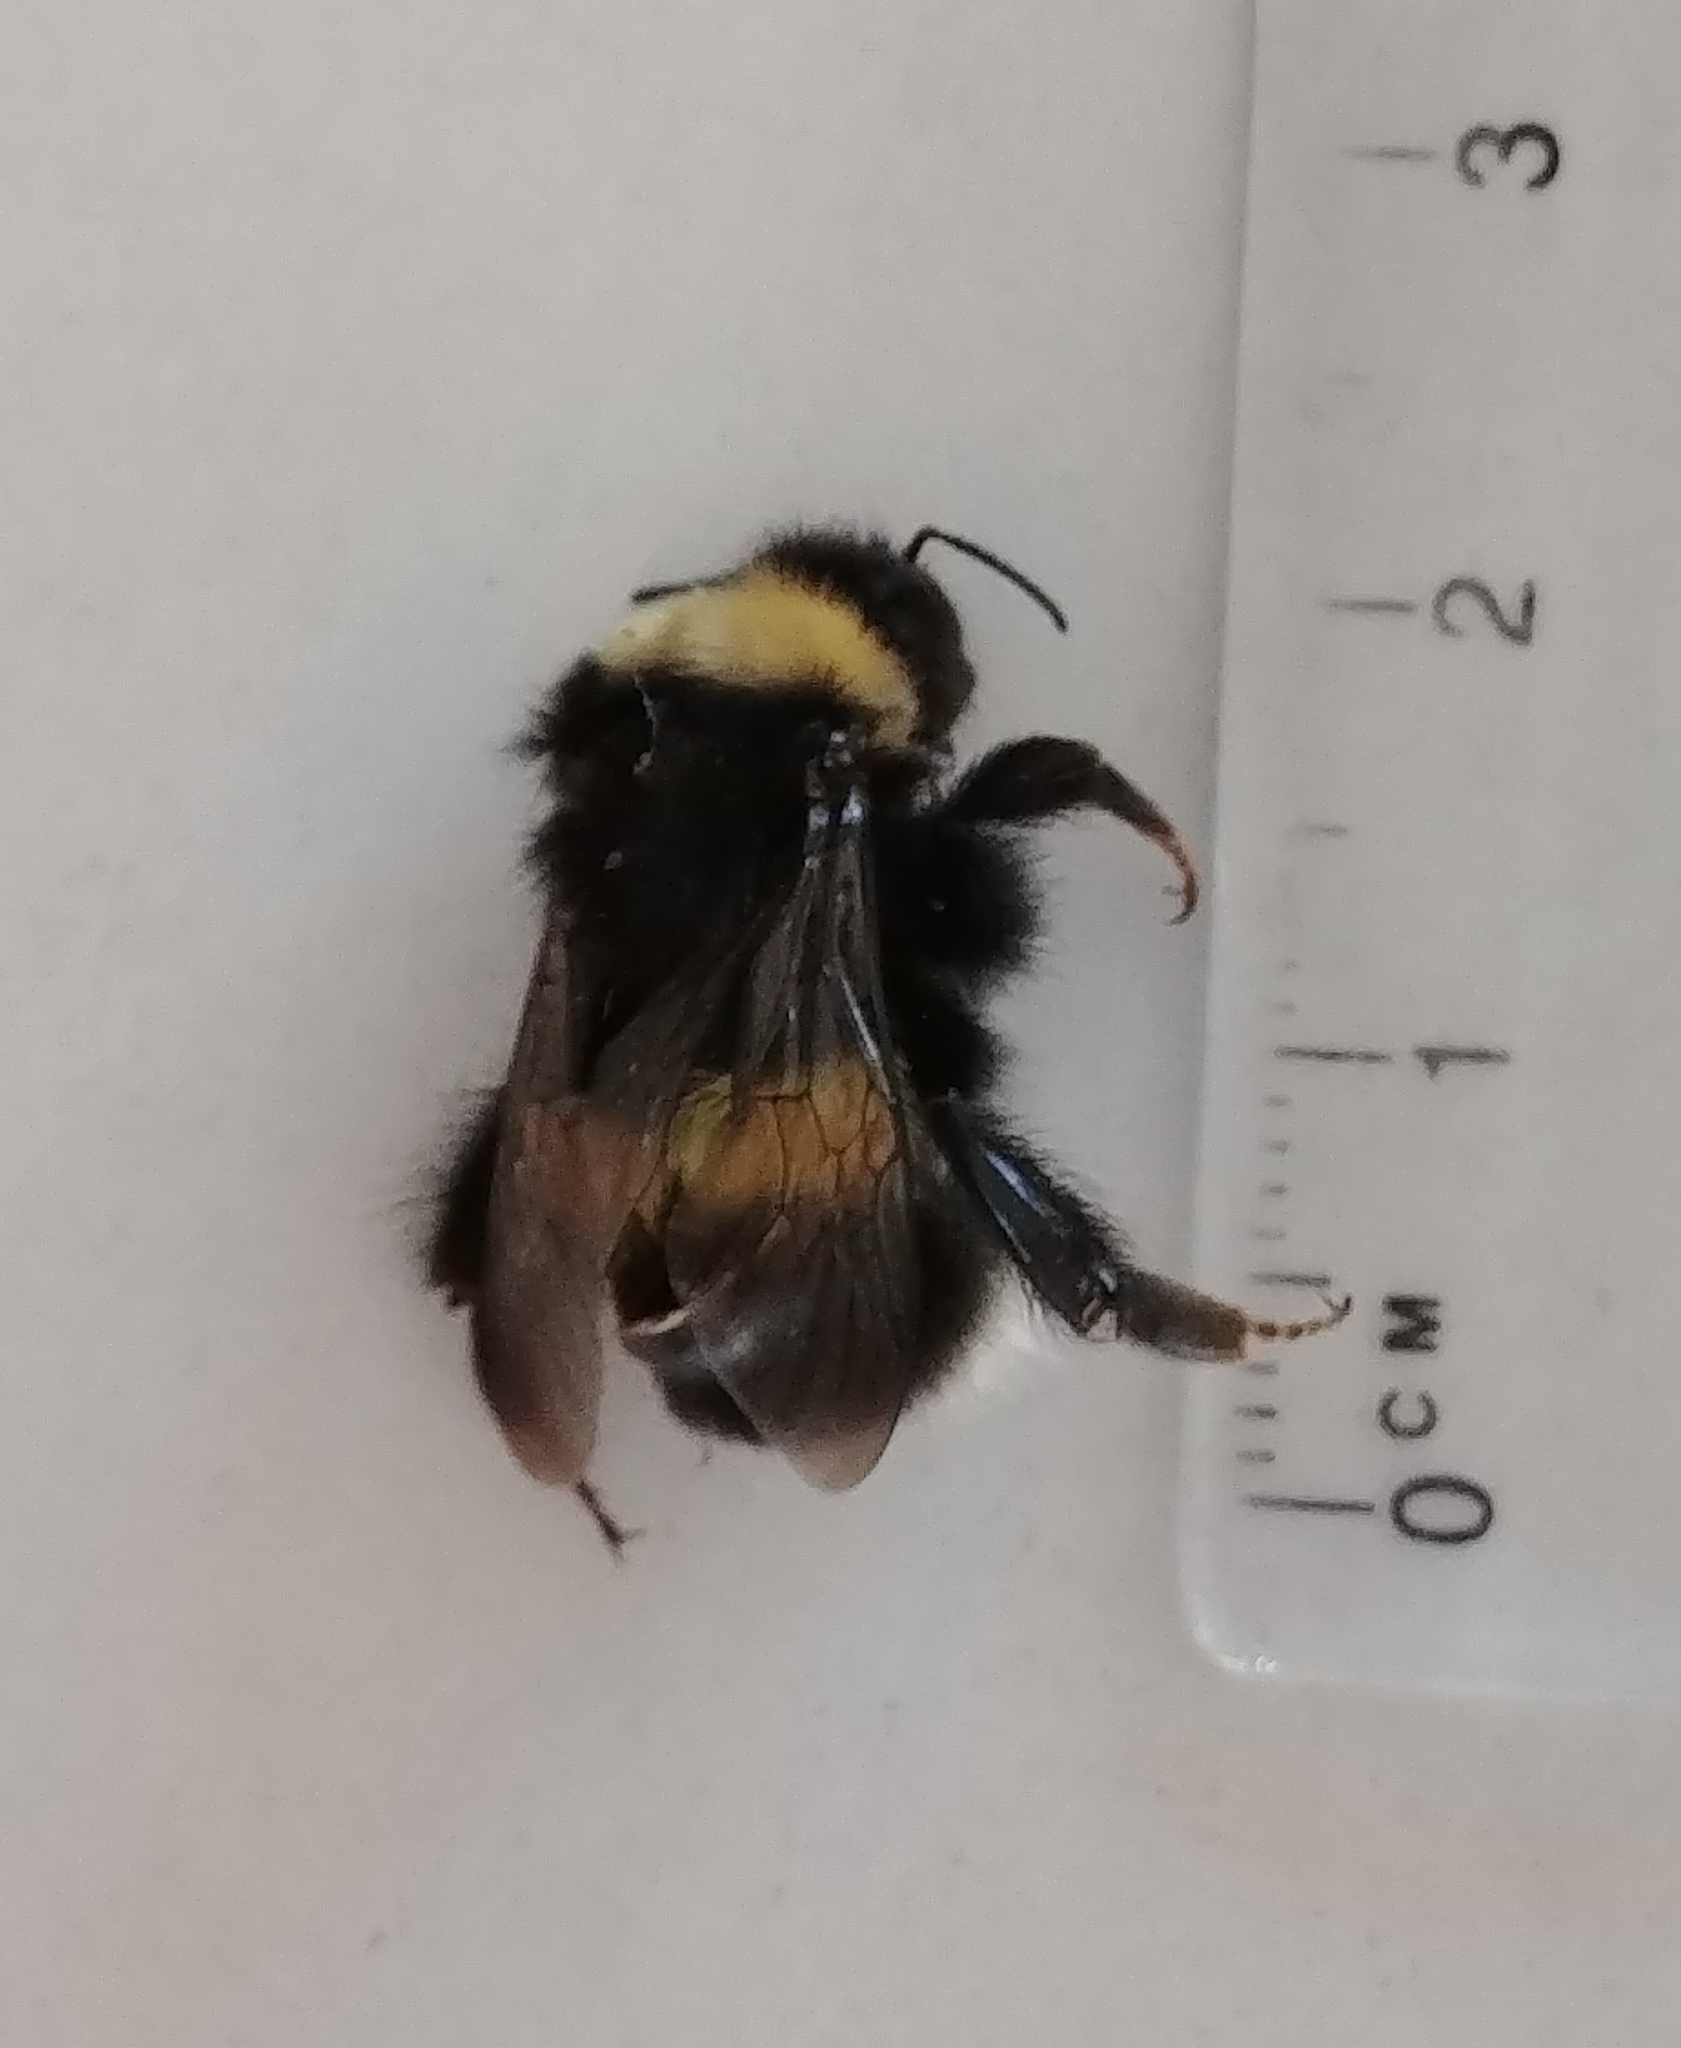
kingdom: Animalia
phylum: Arthropoda
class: Insecta
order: Hymenoptera
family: Apidae
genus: Bombus
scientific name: Bombus cryptarum
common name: Cryptic bumblebee
